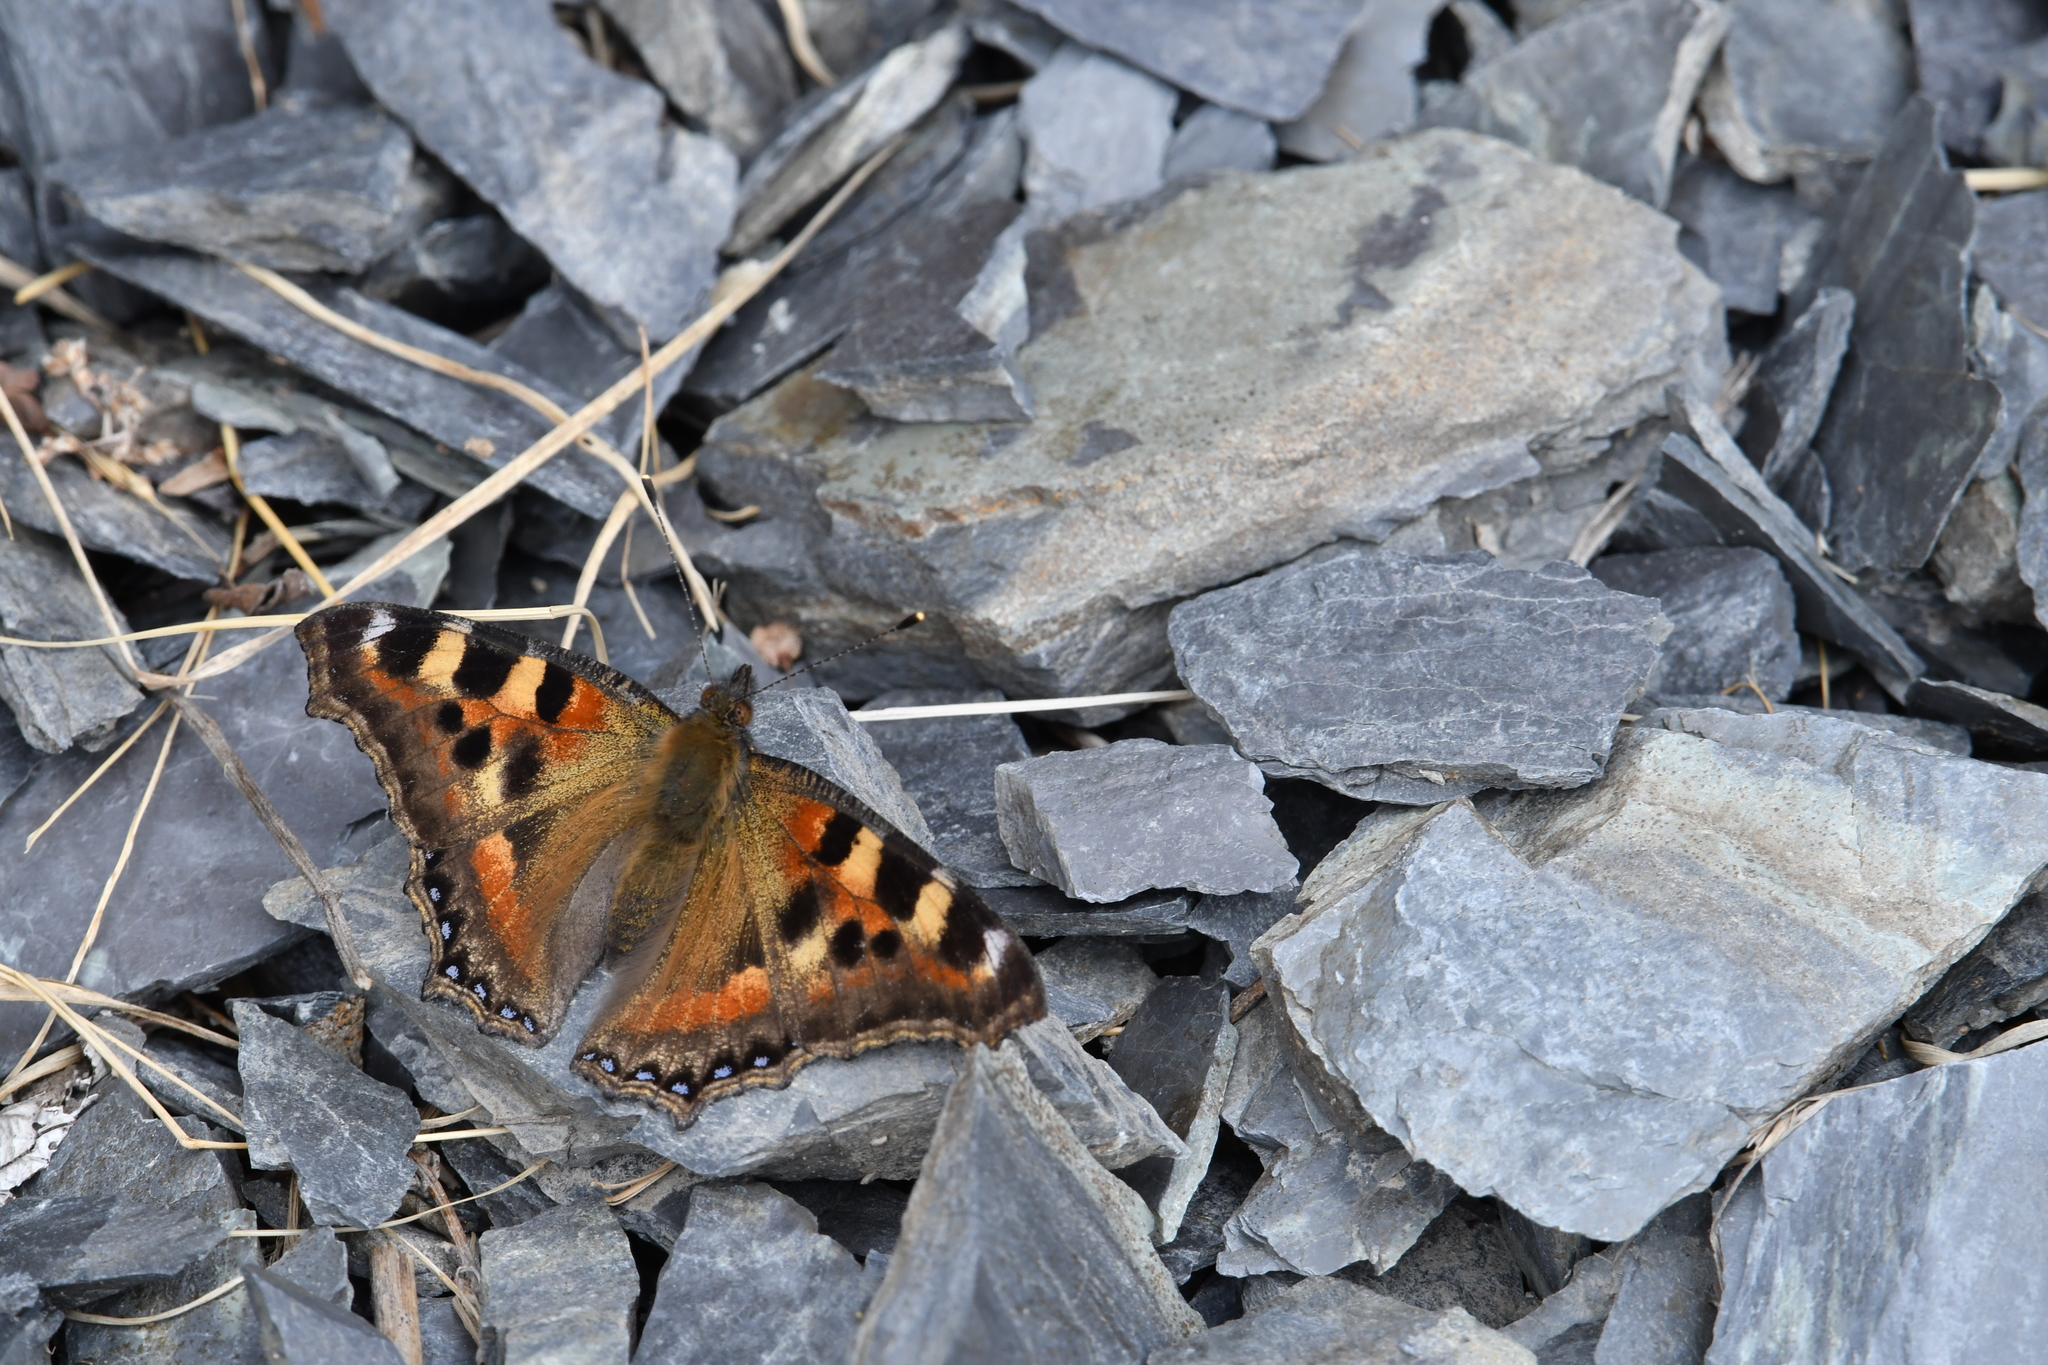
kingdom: Animalia
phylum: Arthropoda
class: Insecta
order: Lepidoptera
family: Nymphalidae
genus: Aglais
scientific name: Aglais caschmirensis
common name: Indian tortoiseshell
